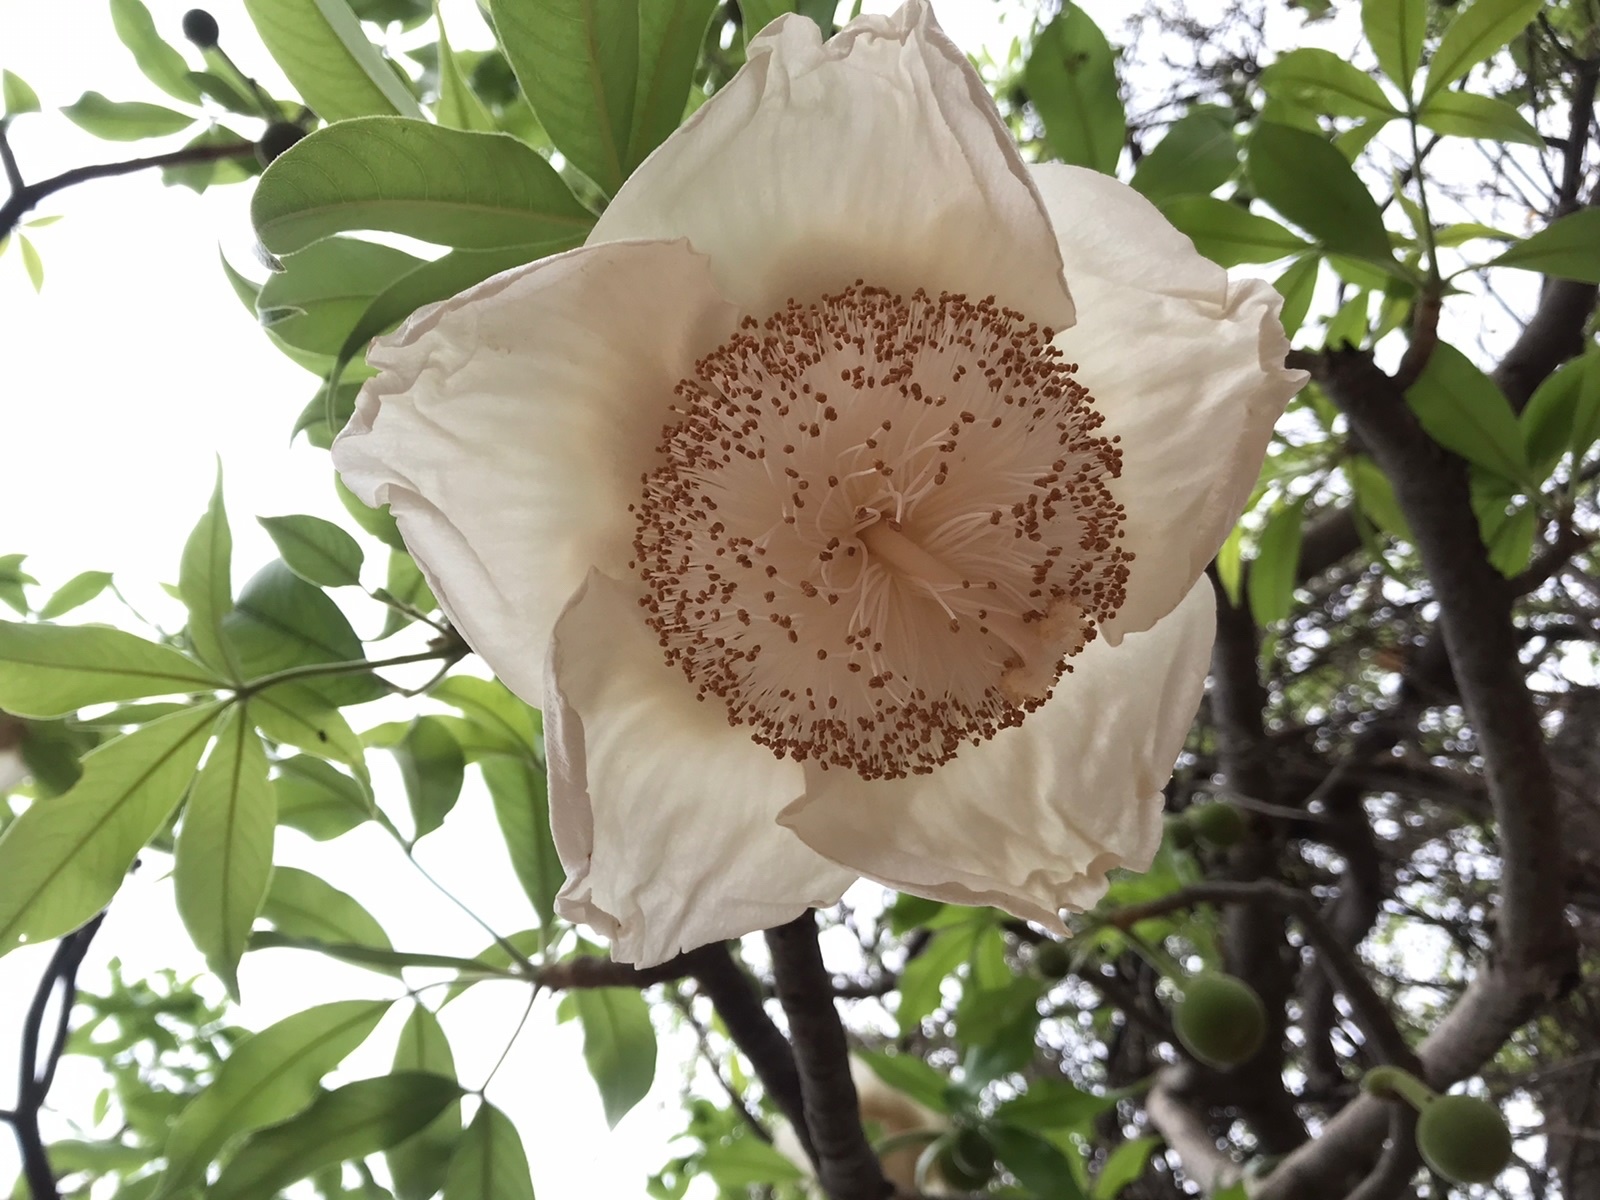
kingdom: Plantae
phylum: Tracheophyta
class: Magnoliopsida
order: Malvales
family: Malvaceae
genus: Adansonia
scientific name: Adansonia digitata
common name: Dead-rat-tree
